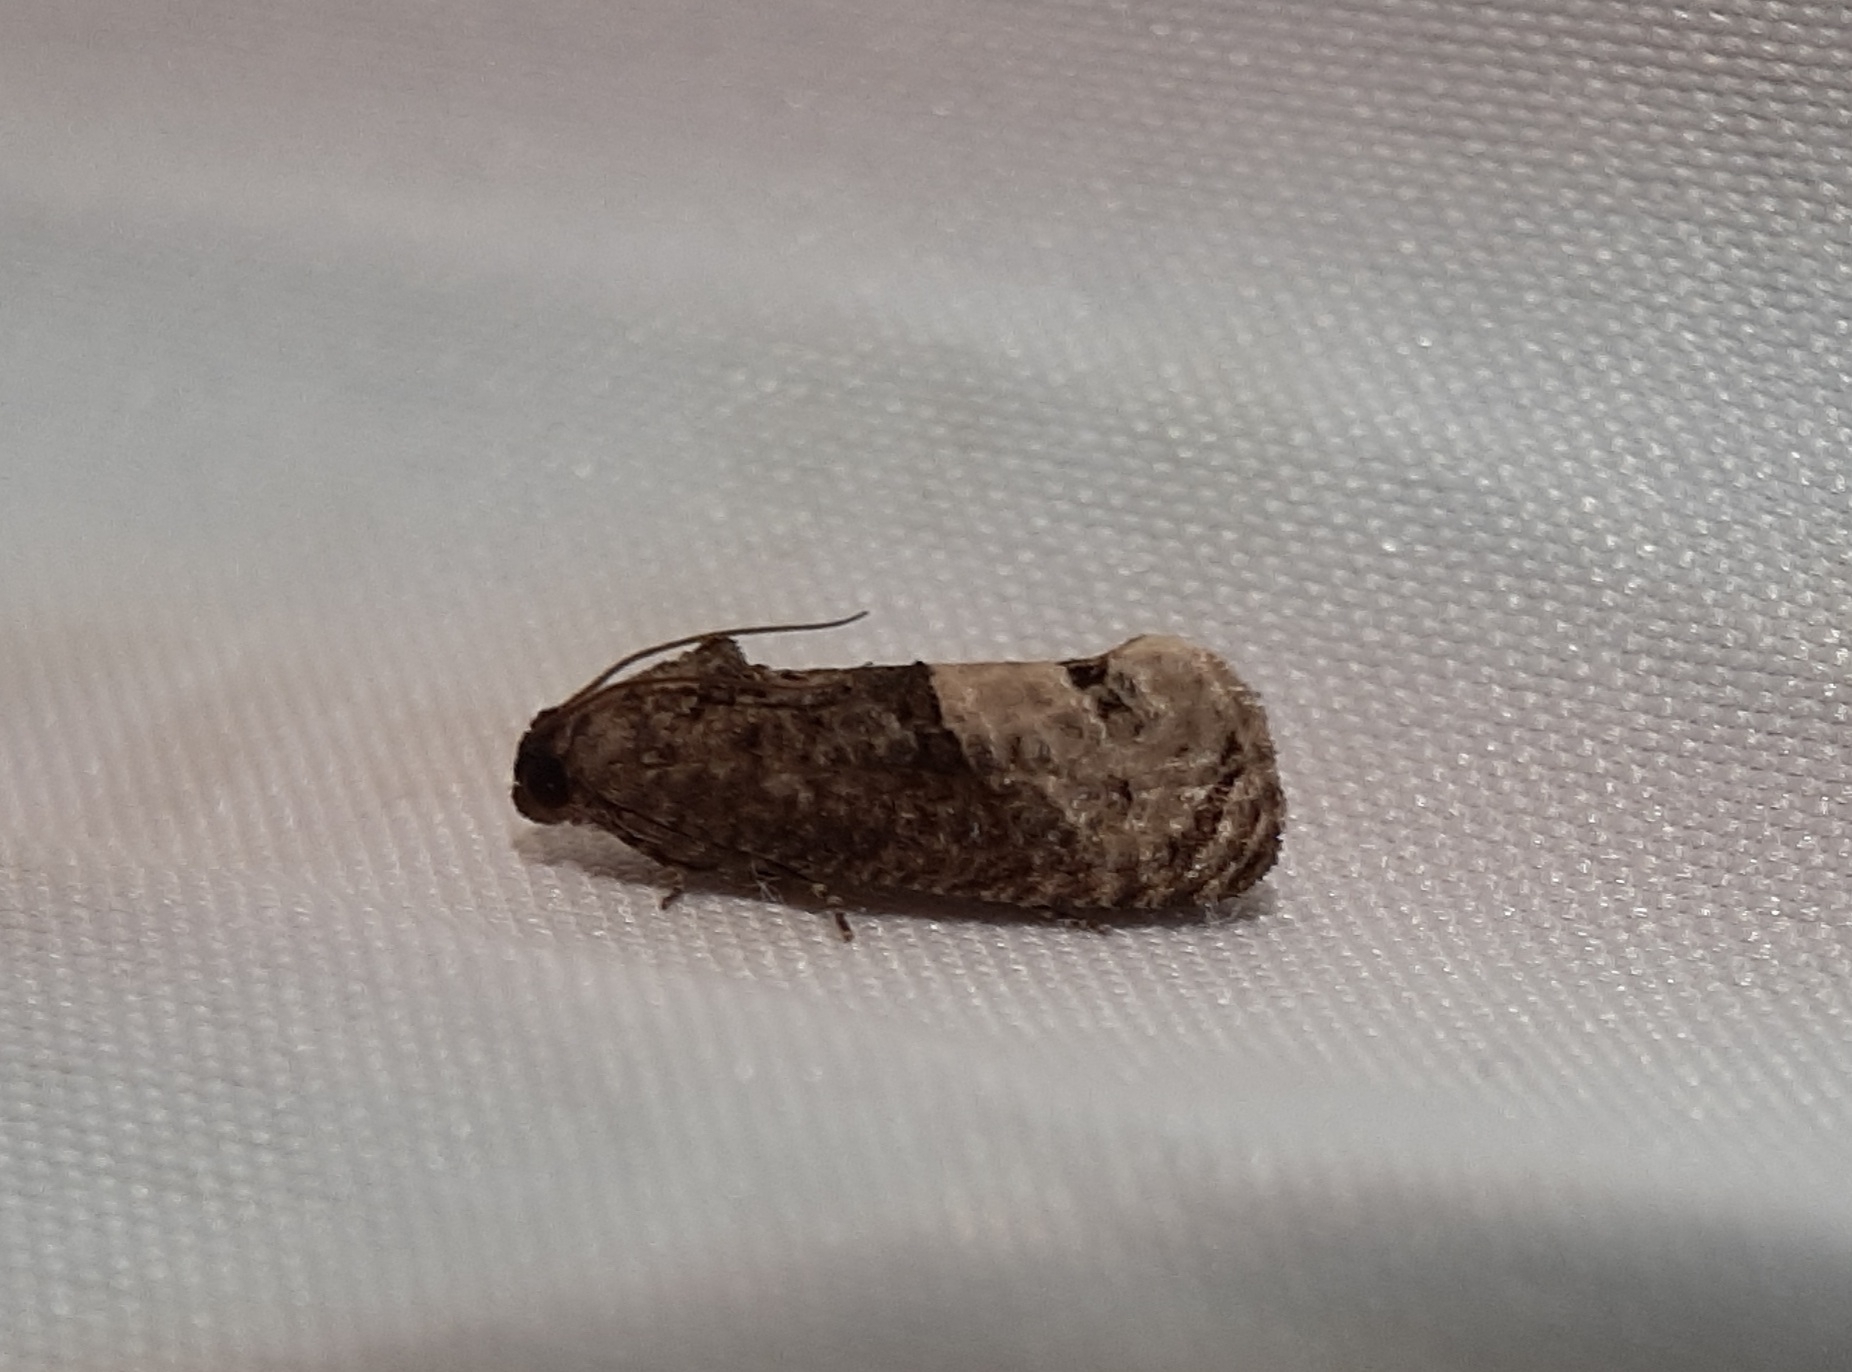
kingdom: Animalia
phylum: Arthropoda
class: Insecta
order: Lepidoptera
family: Tortricidae
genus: Ecdytolopha
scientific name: Ecdytolopha insiticiana
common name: Locust twig borer moth
